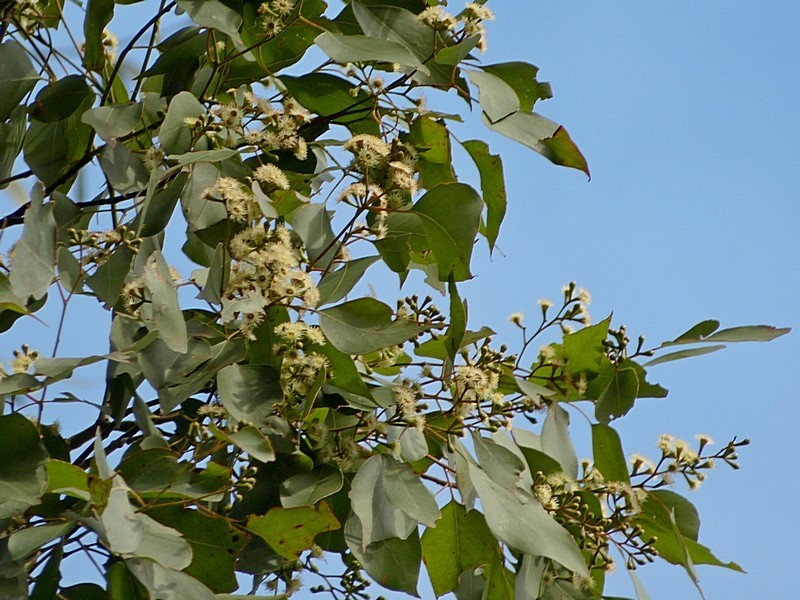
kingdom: Plantae
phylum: Tracheophyta
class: Magnoliopsida
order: Myrtales
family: Myrtaceae
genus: Eucalyptus
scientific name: Eucalyptus baueriana
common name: Round-leaf-box
